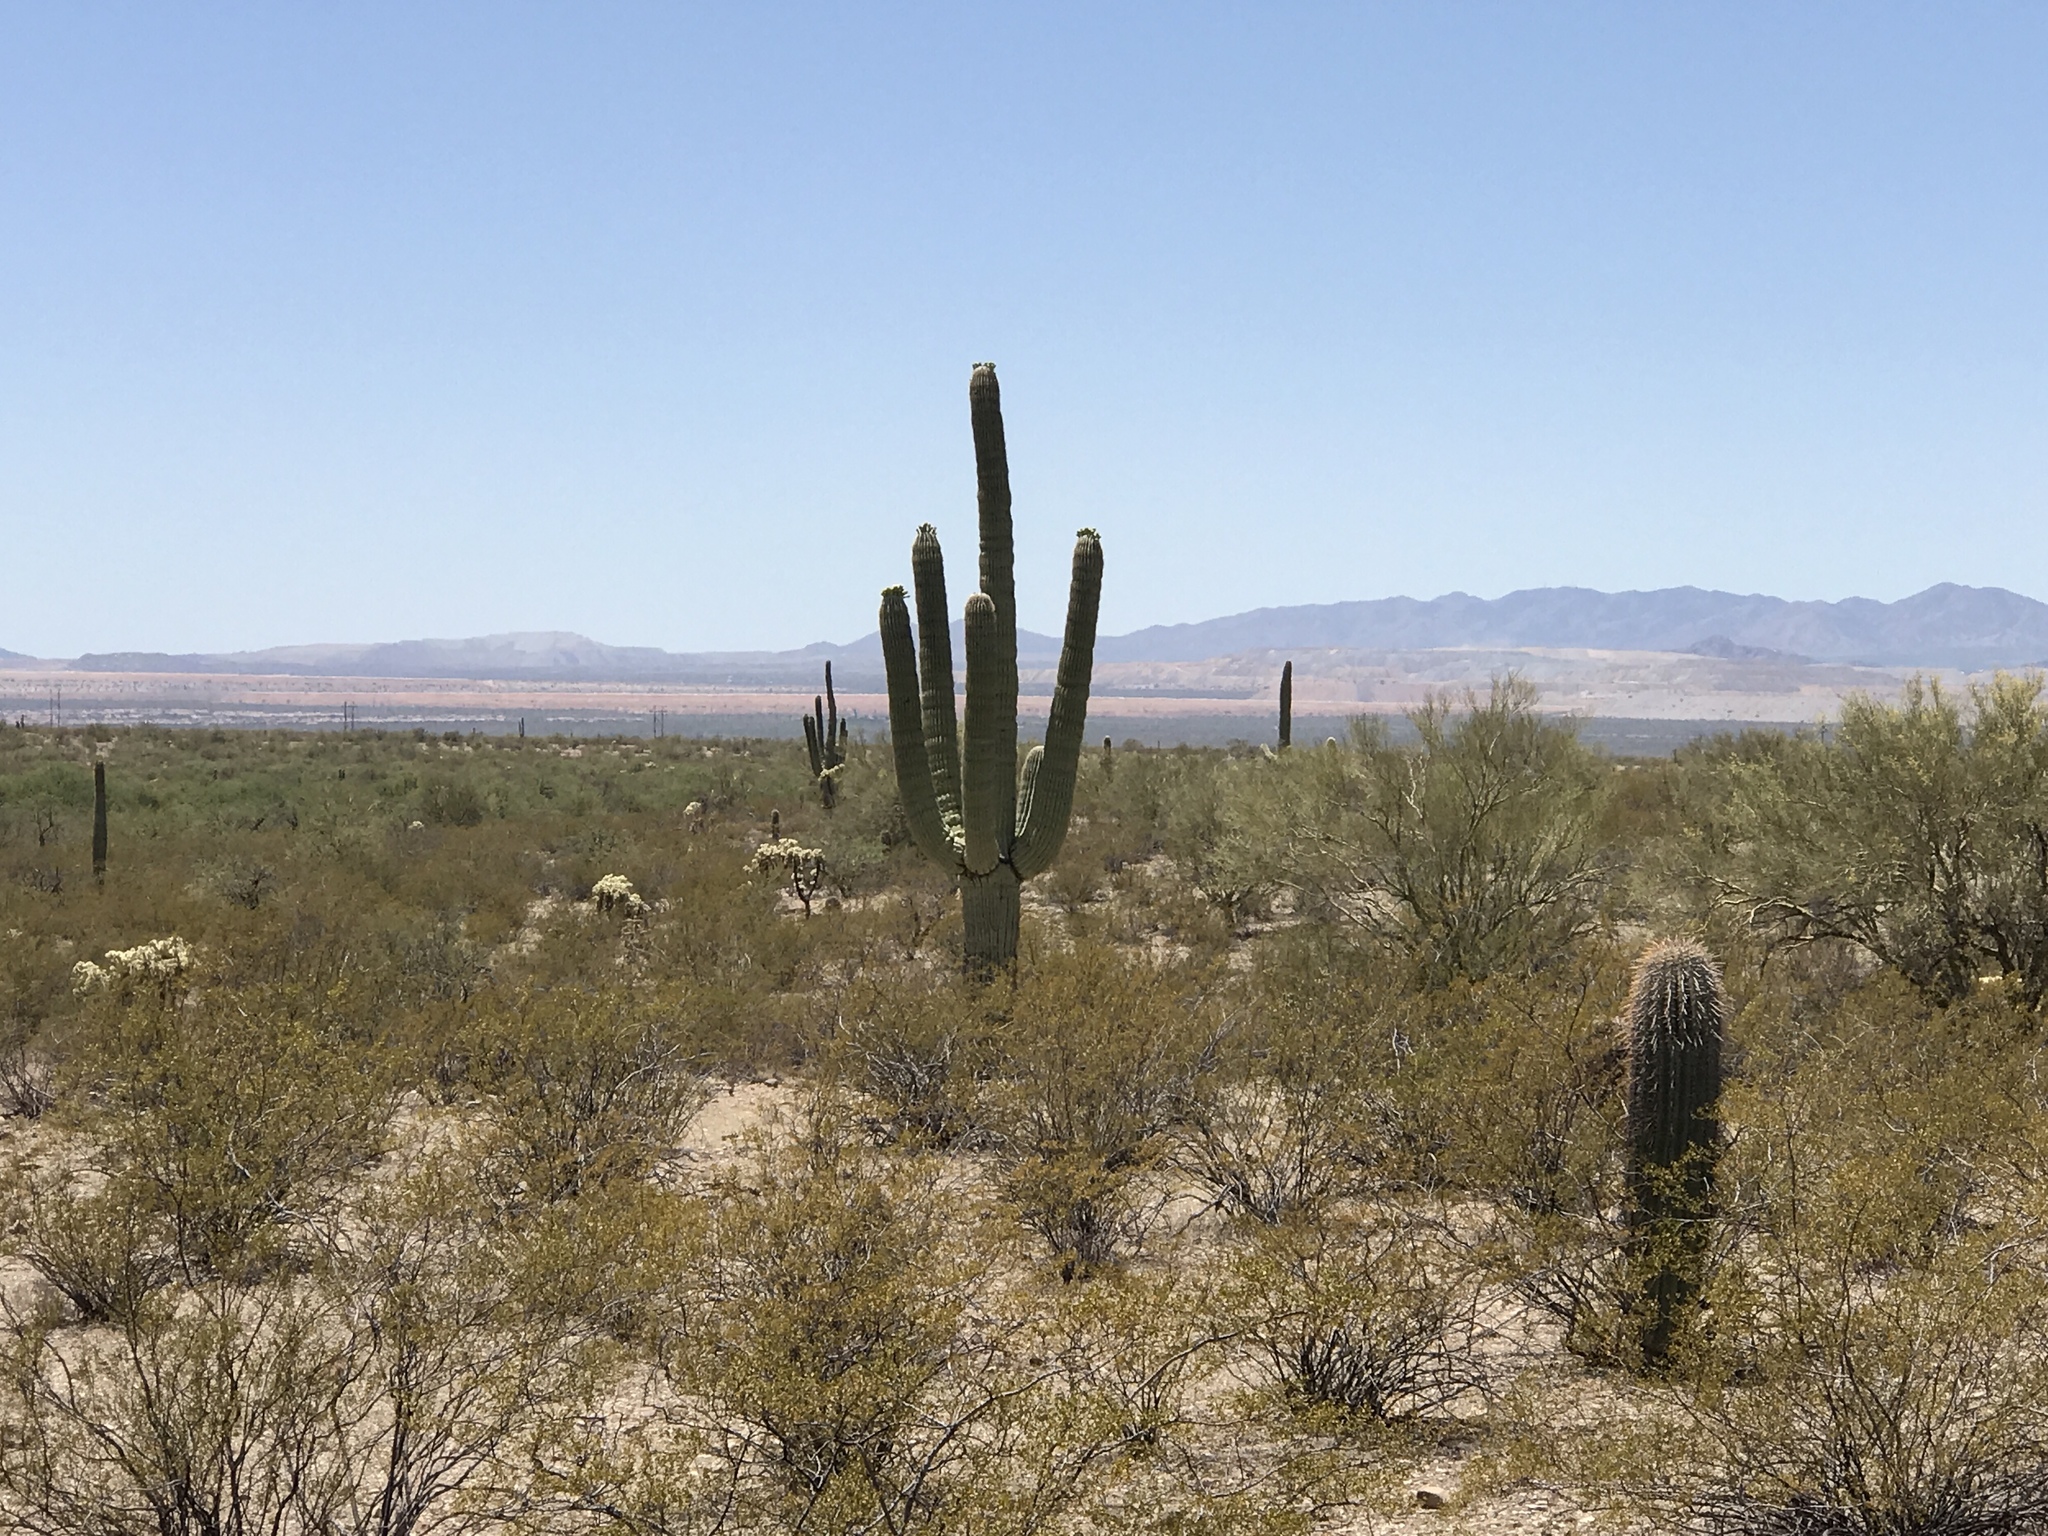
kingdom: Plantae
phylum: Tracheophyta
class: Magnoliopsida
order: Caryophyllales
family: Cactaceae
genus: Carnegiea
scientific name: Carnegiea gigantea
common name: Saguaro
